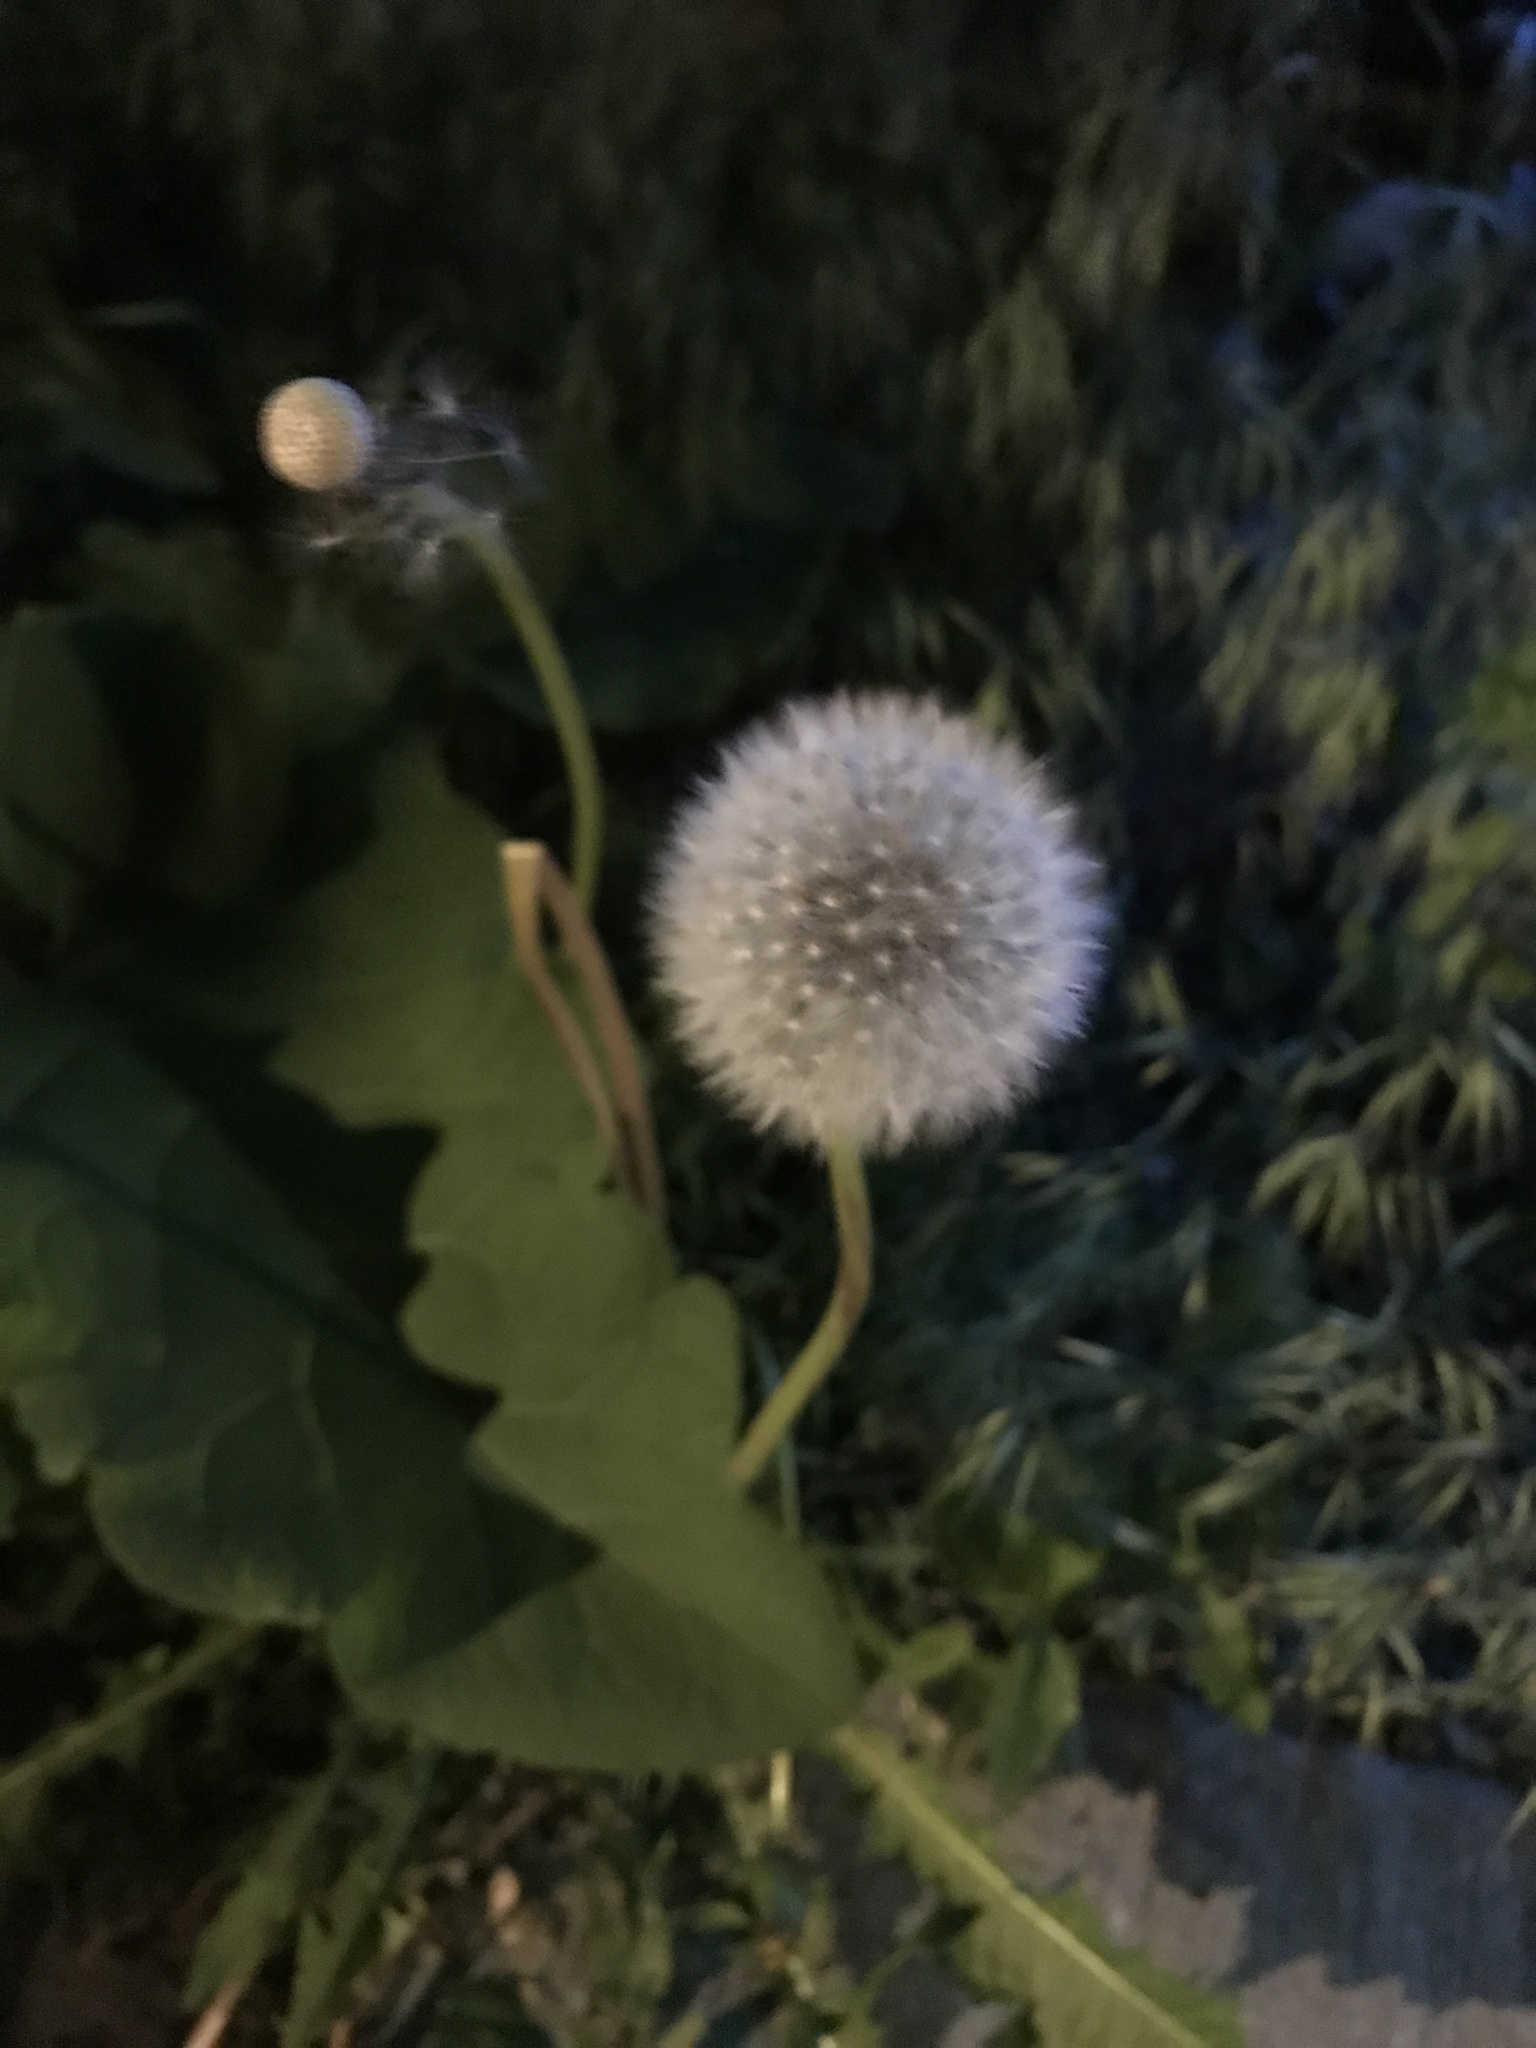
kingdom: Plantae
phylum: Tracheophyta
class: Magnoliopsida
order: Asterales
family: Asteraceae
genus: Taraxacum
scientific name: Taraxacum officinale
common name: Common dandelion
